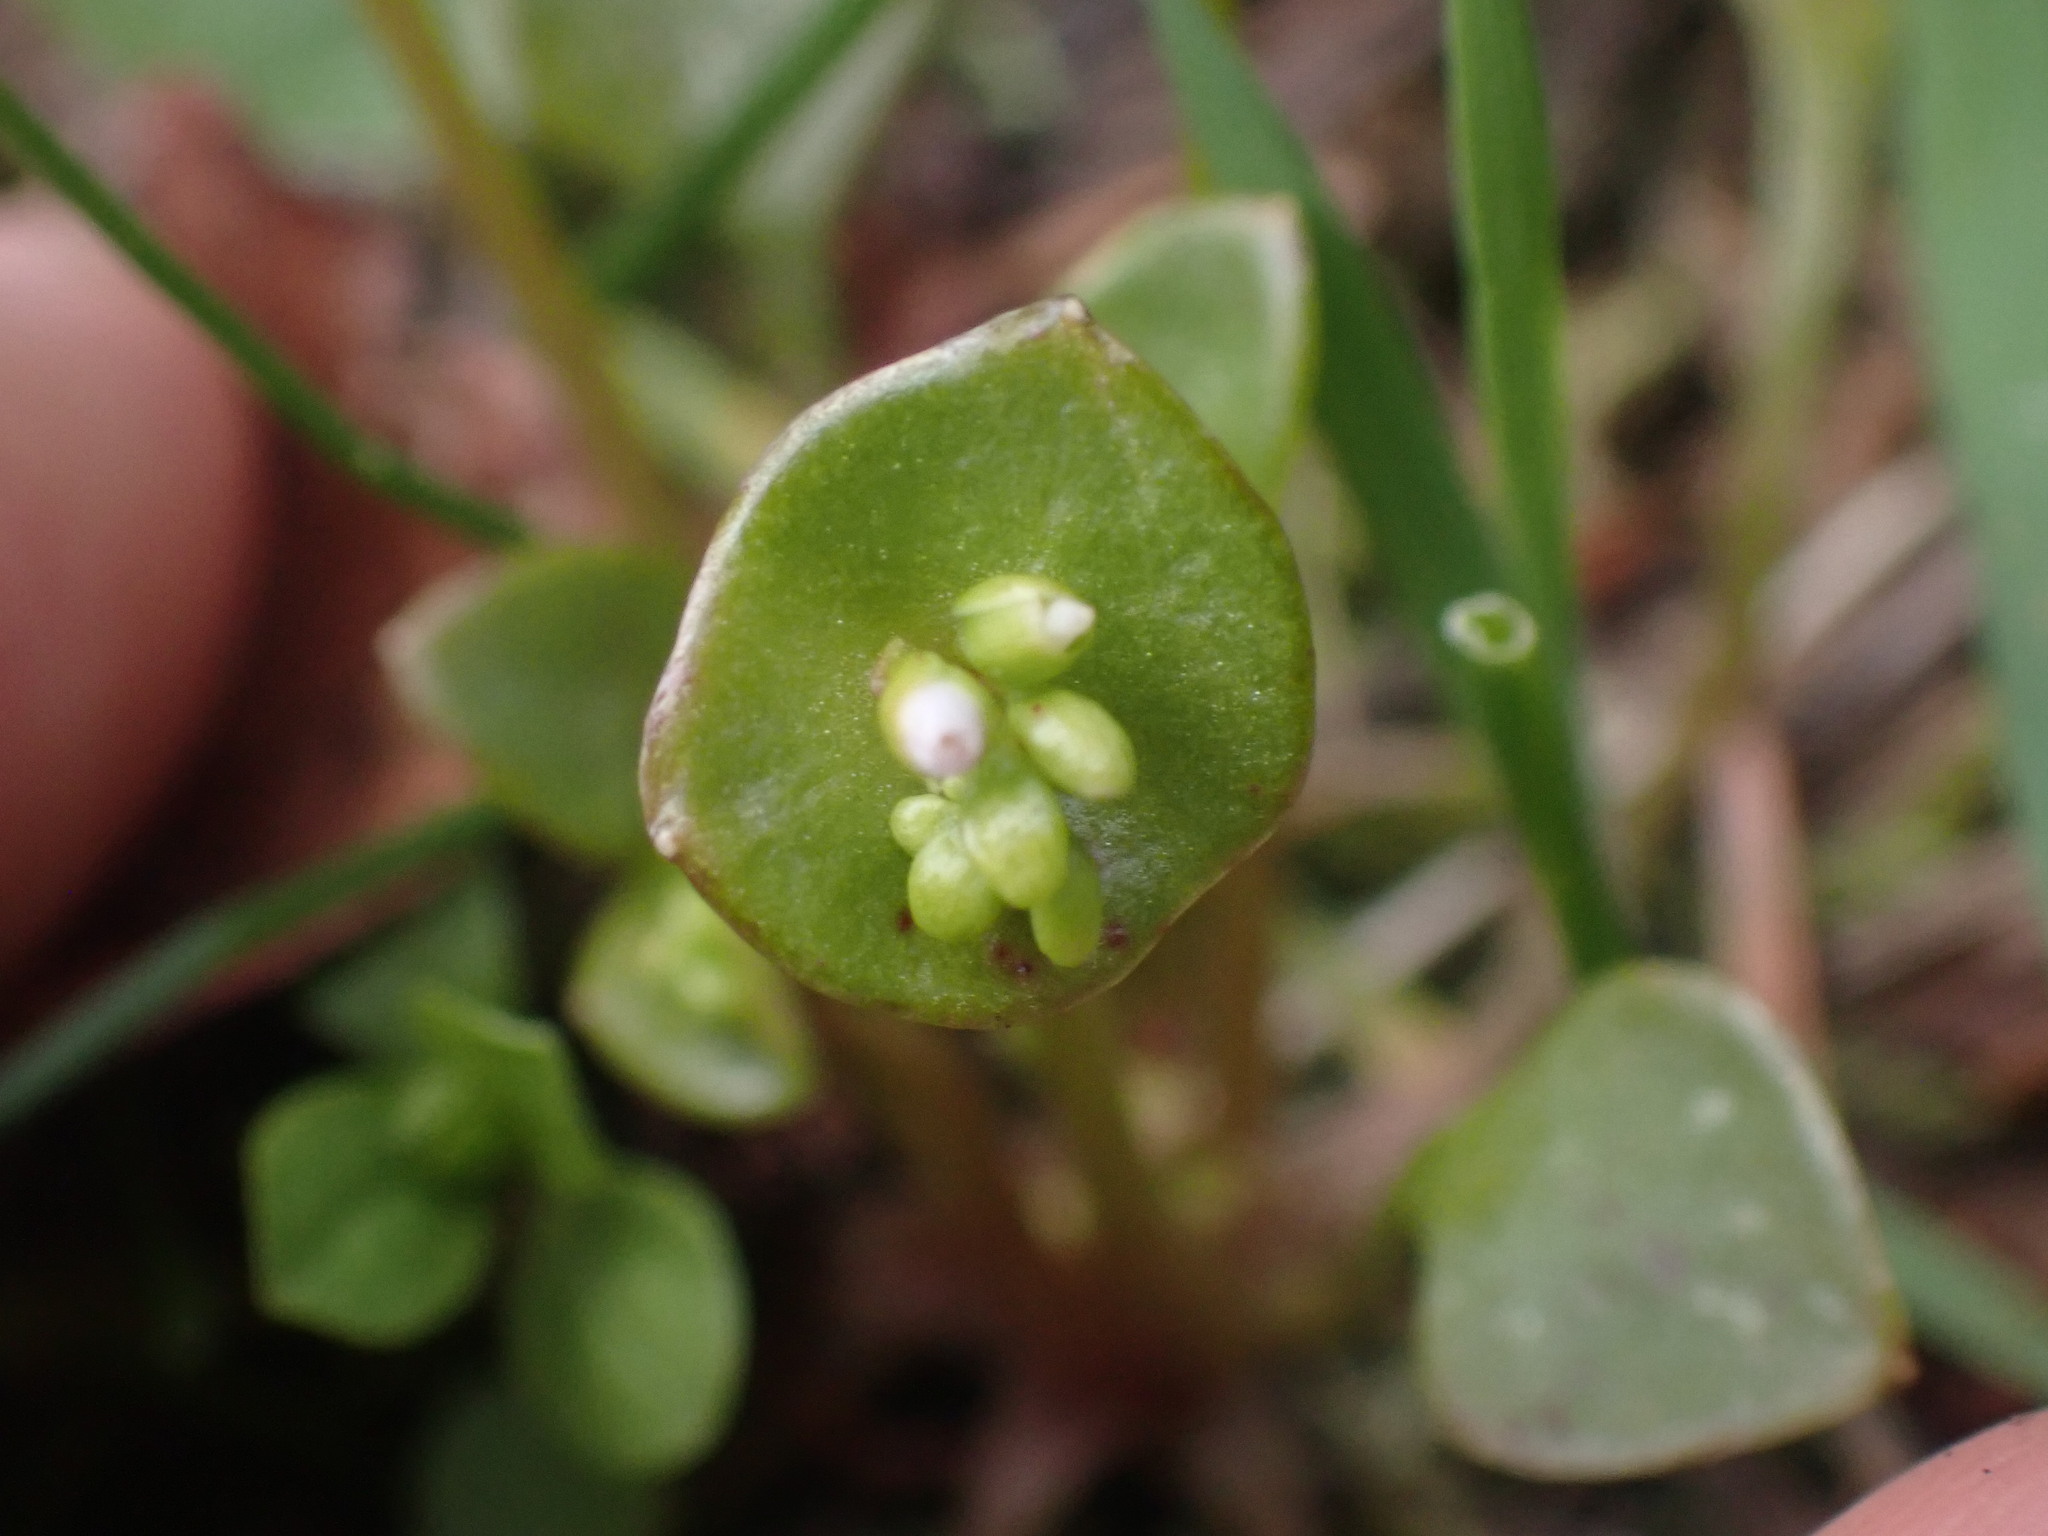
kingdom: Plantae
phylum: Tracheophyta
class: Magnoliopsida
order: Caryophyllales
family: Montiaceae
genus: Claytonia
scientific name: Claytonia perfoliata
